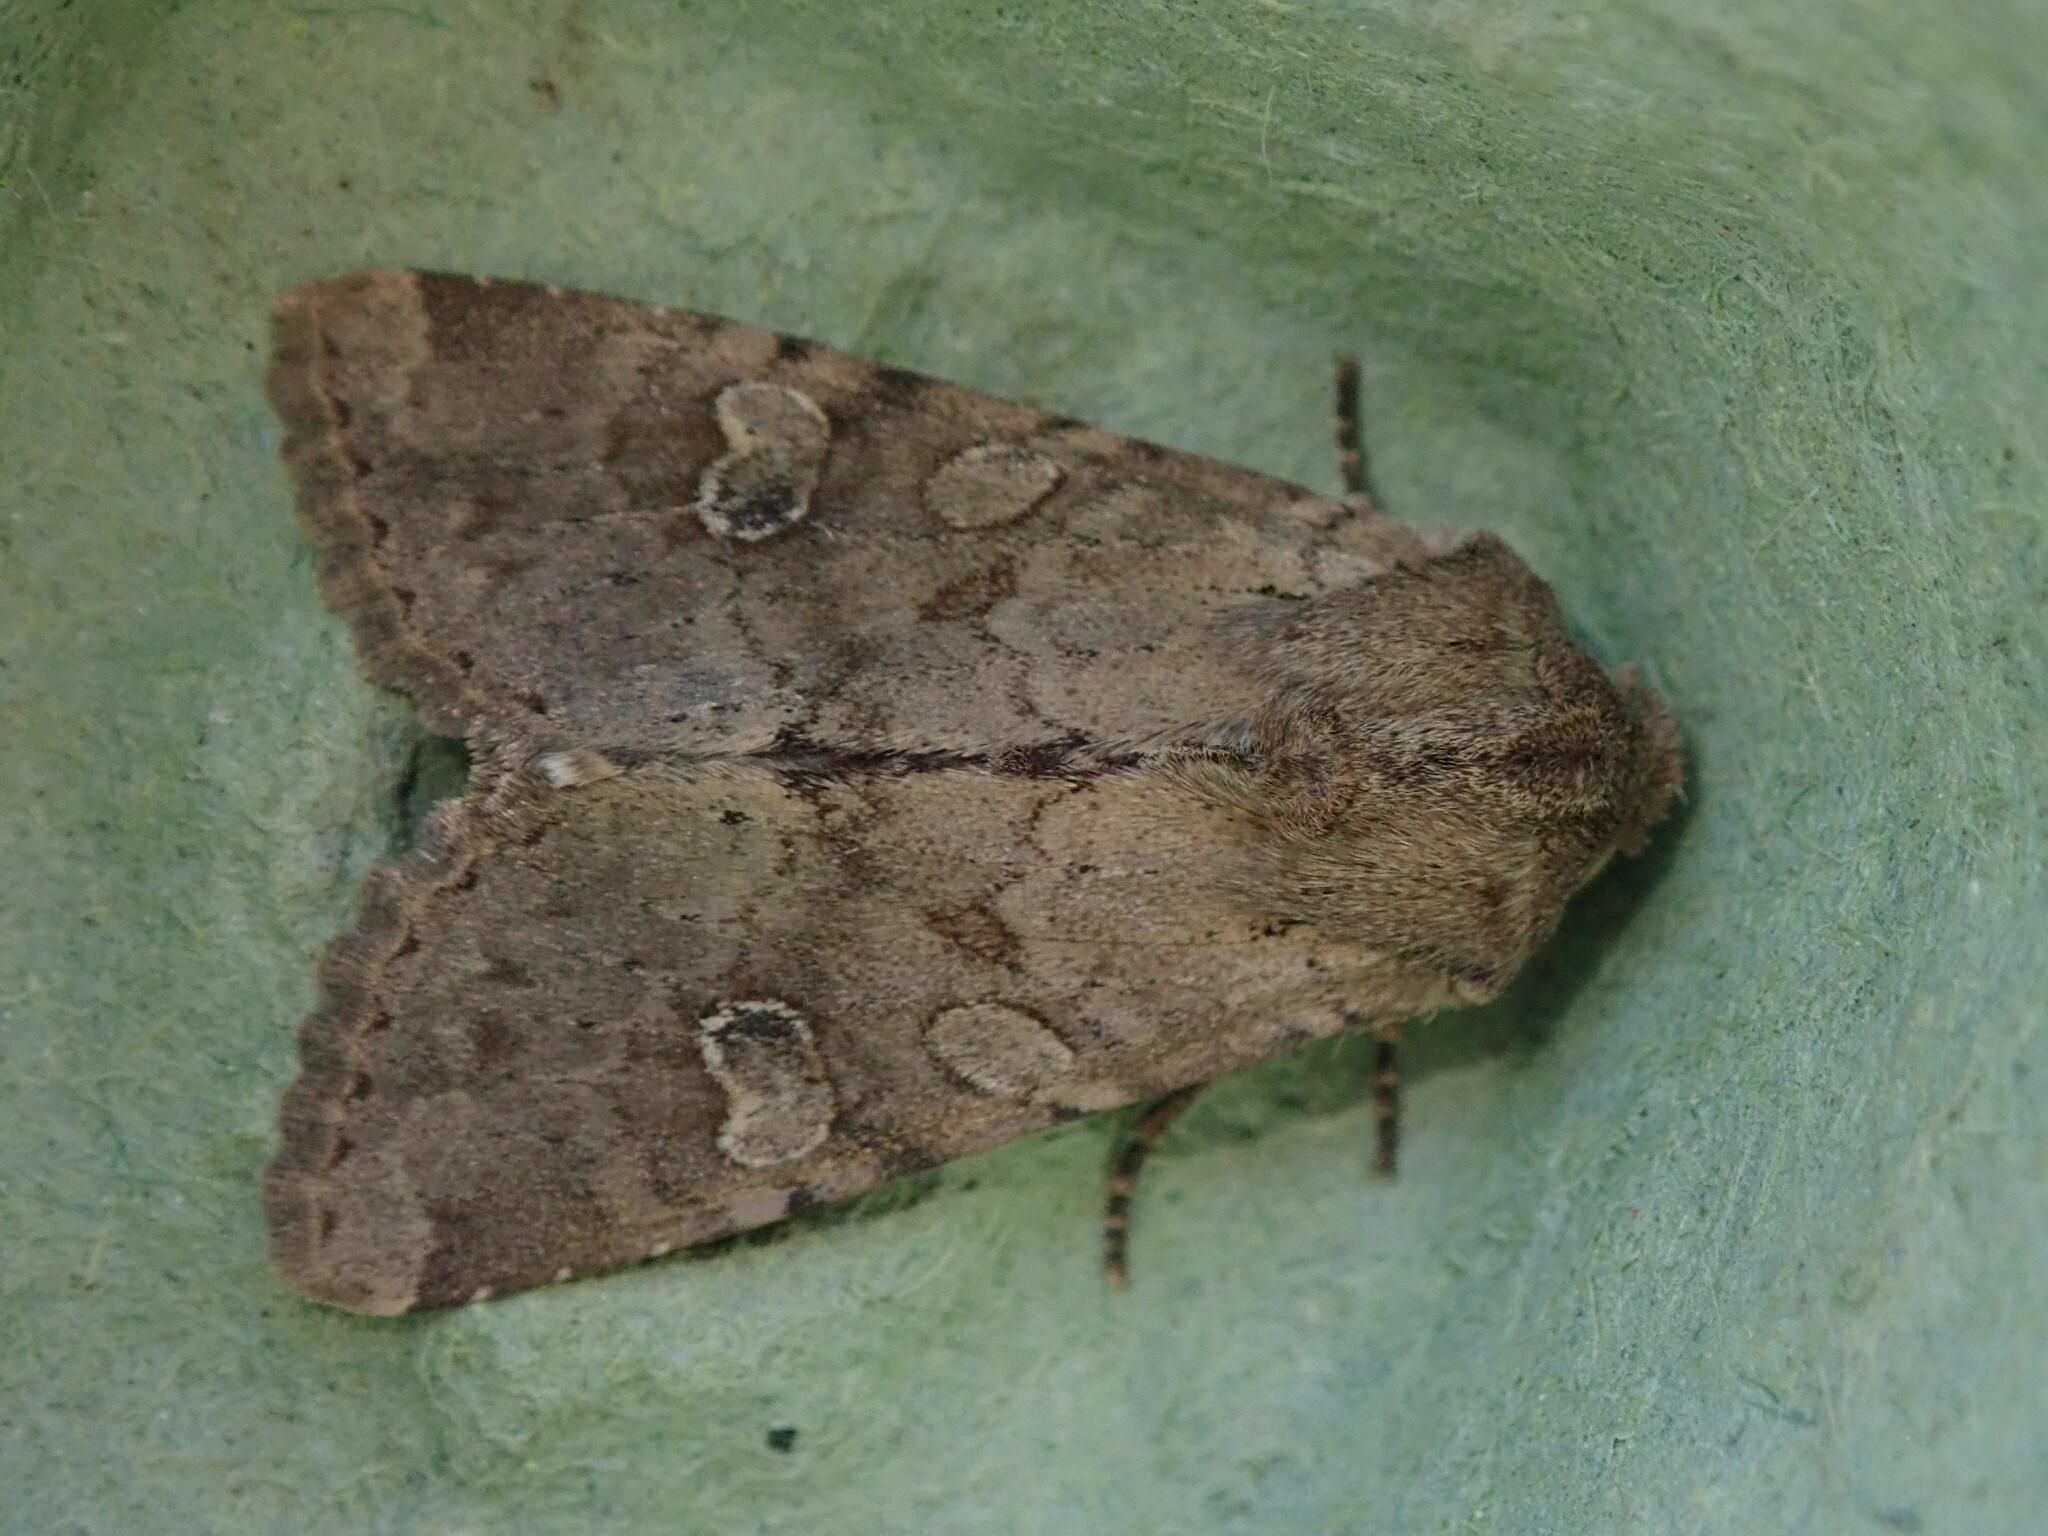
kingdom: Animalia
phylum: Arthropoda
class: Insecta
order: Lepidoptera
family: Noctuidae
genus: Apamea
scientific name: Apamea sordens
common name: Rustic shoulder-knot
